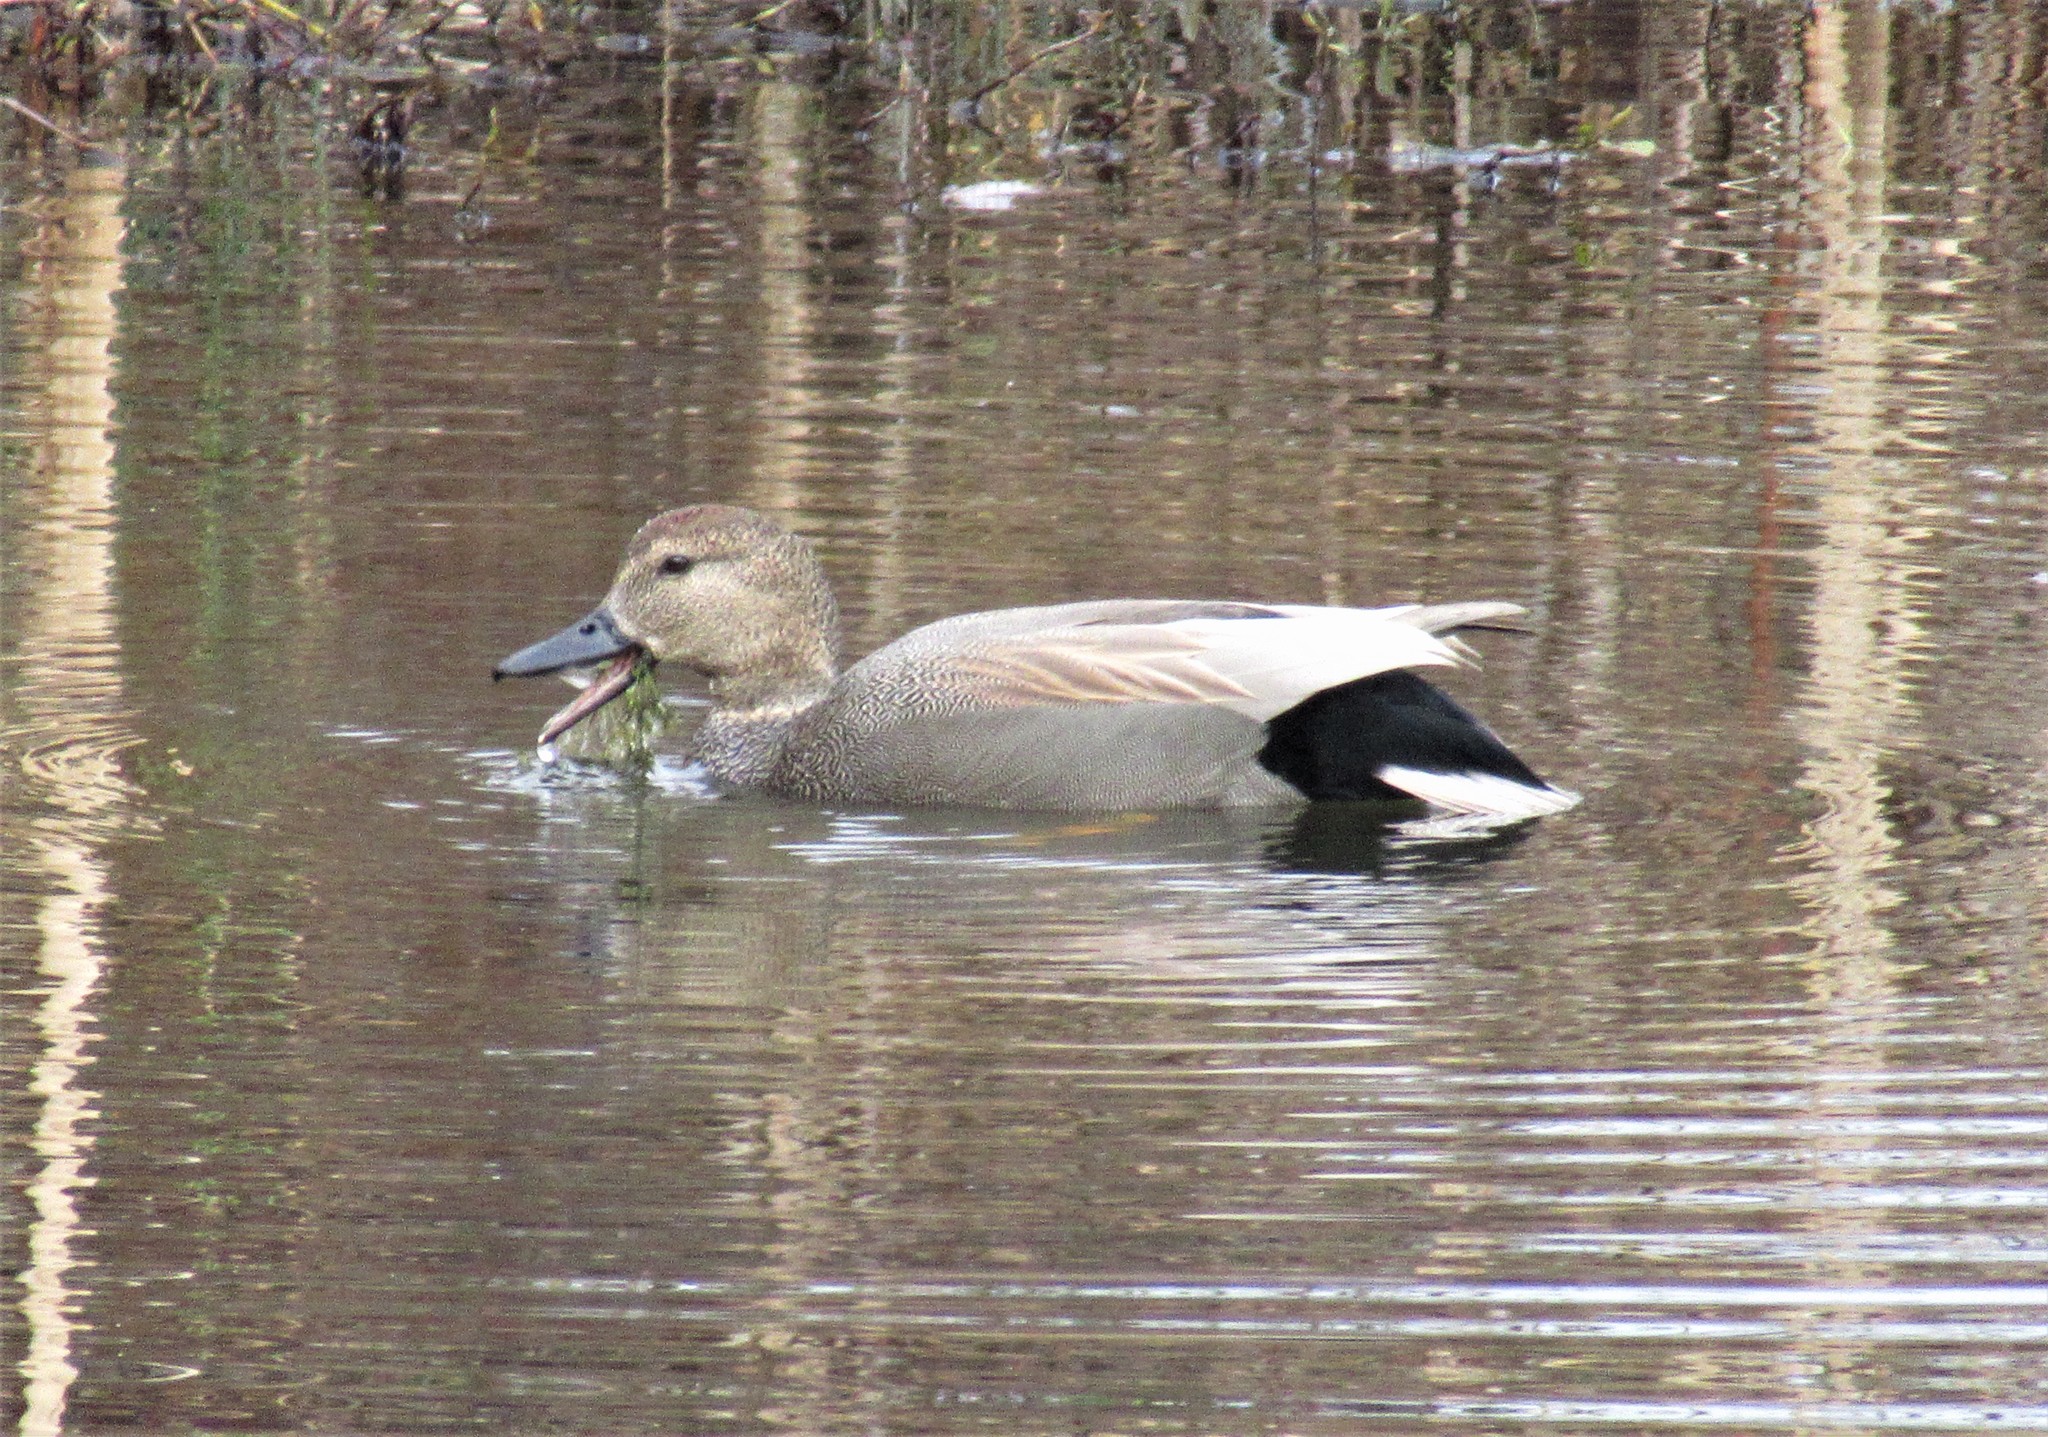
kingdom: Animalia
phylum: Chordata
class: Aves
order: Anseriformes
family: Anatidae
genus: Mareca
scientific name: Mareca strepera
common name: Gadwall
